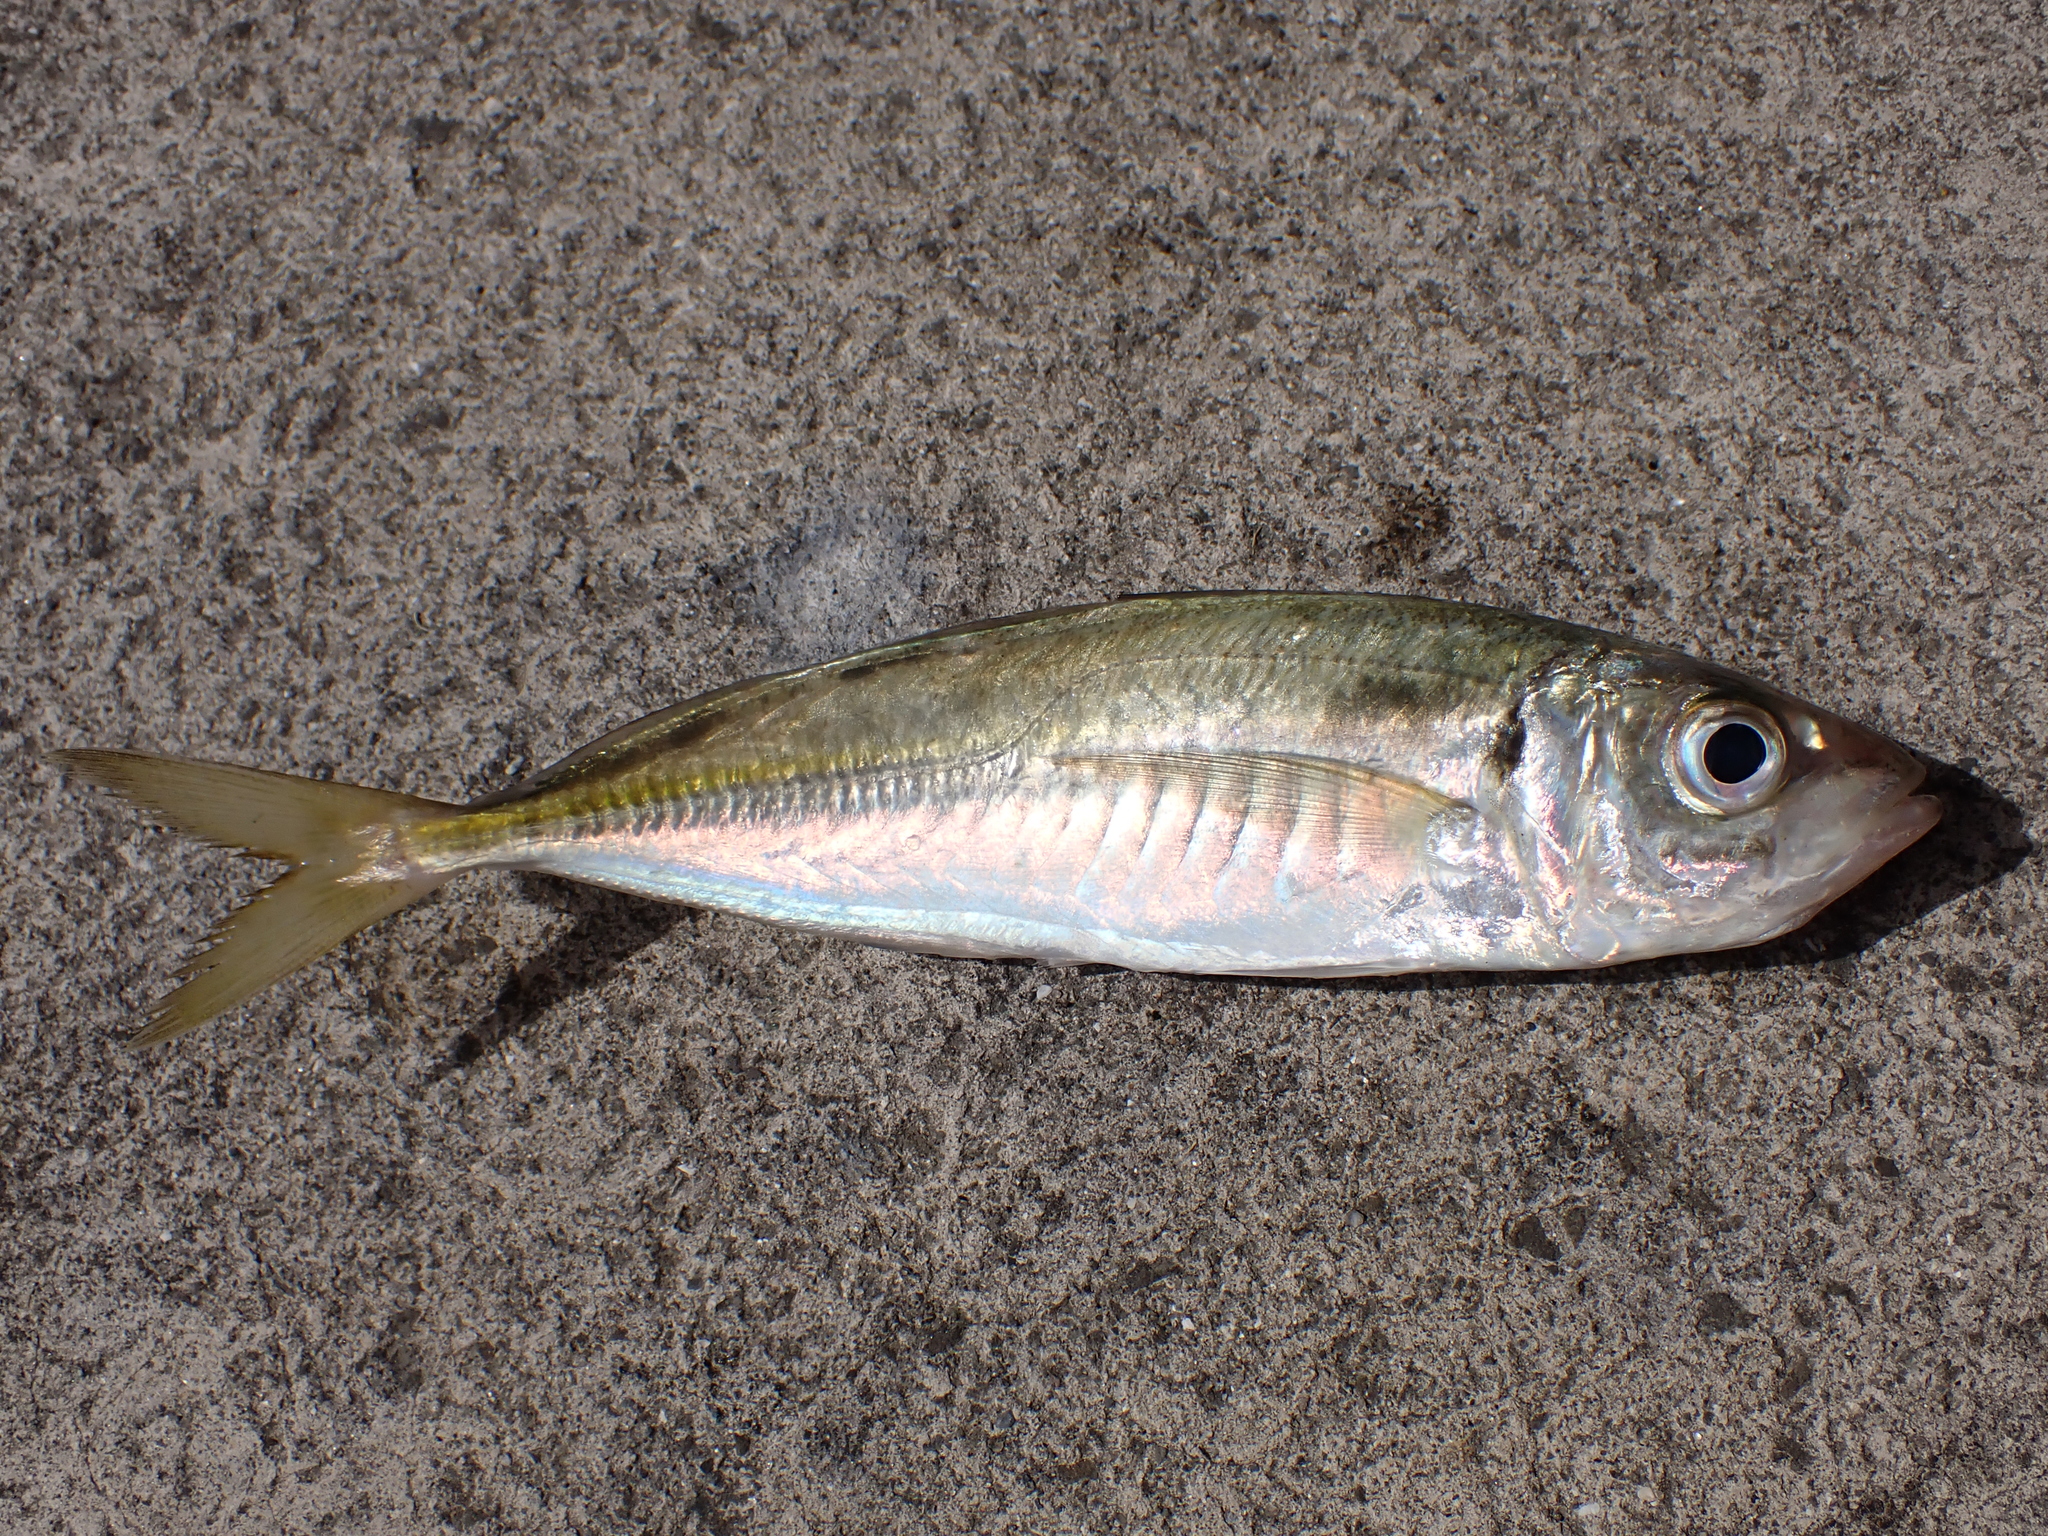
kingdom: Animalia
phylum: Chordata
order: Perciformes
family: Carangidae
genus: Trachurus
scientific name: Trachurus novaezelandiae
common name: Yellowtail horse mackerel
